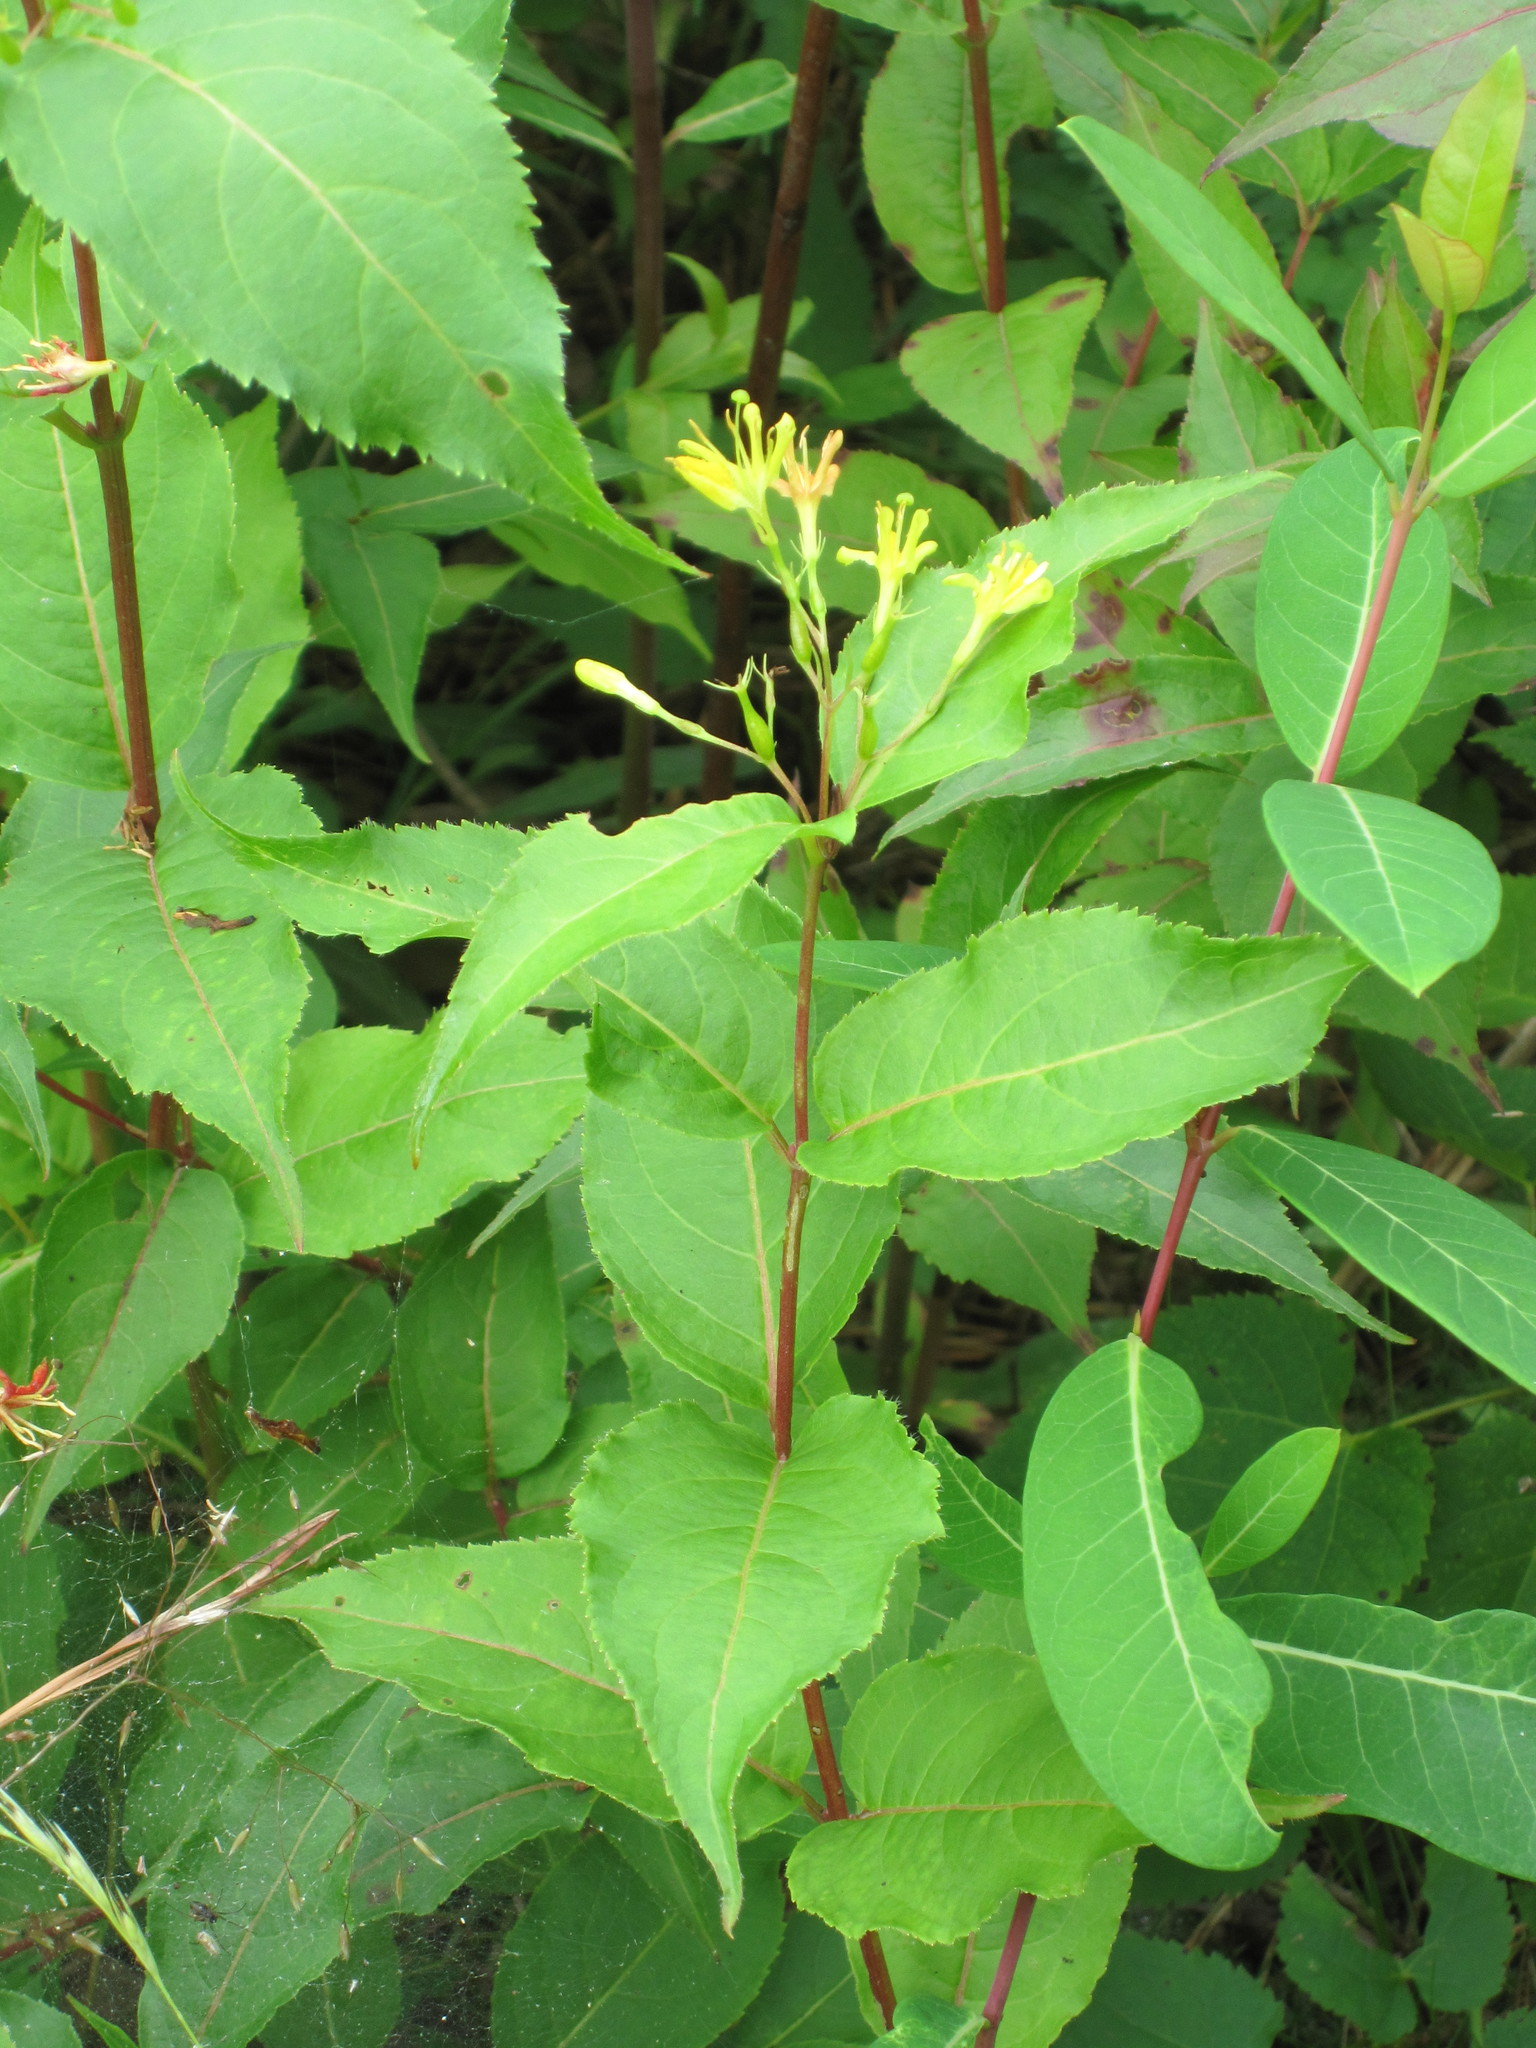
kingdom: Plantae
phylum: Tracheophyta
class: Magnoliopsida
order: Dipsacales
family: Caprifoliaceae
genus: Diervilla
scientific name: Diervilla lonicera
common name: Bush-honeysuckle
